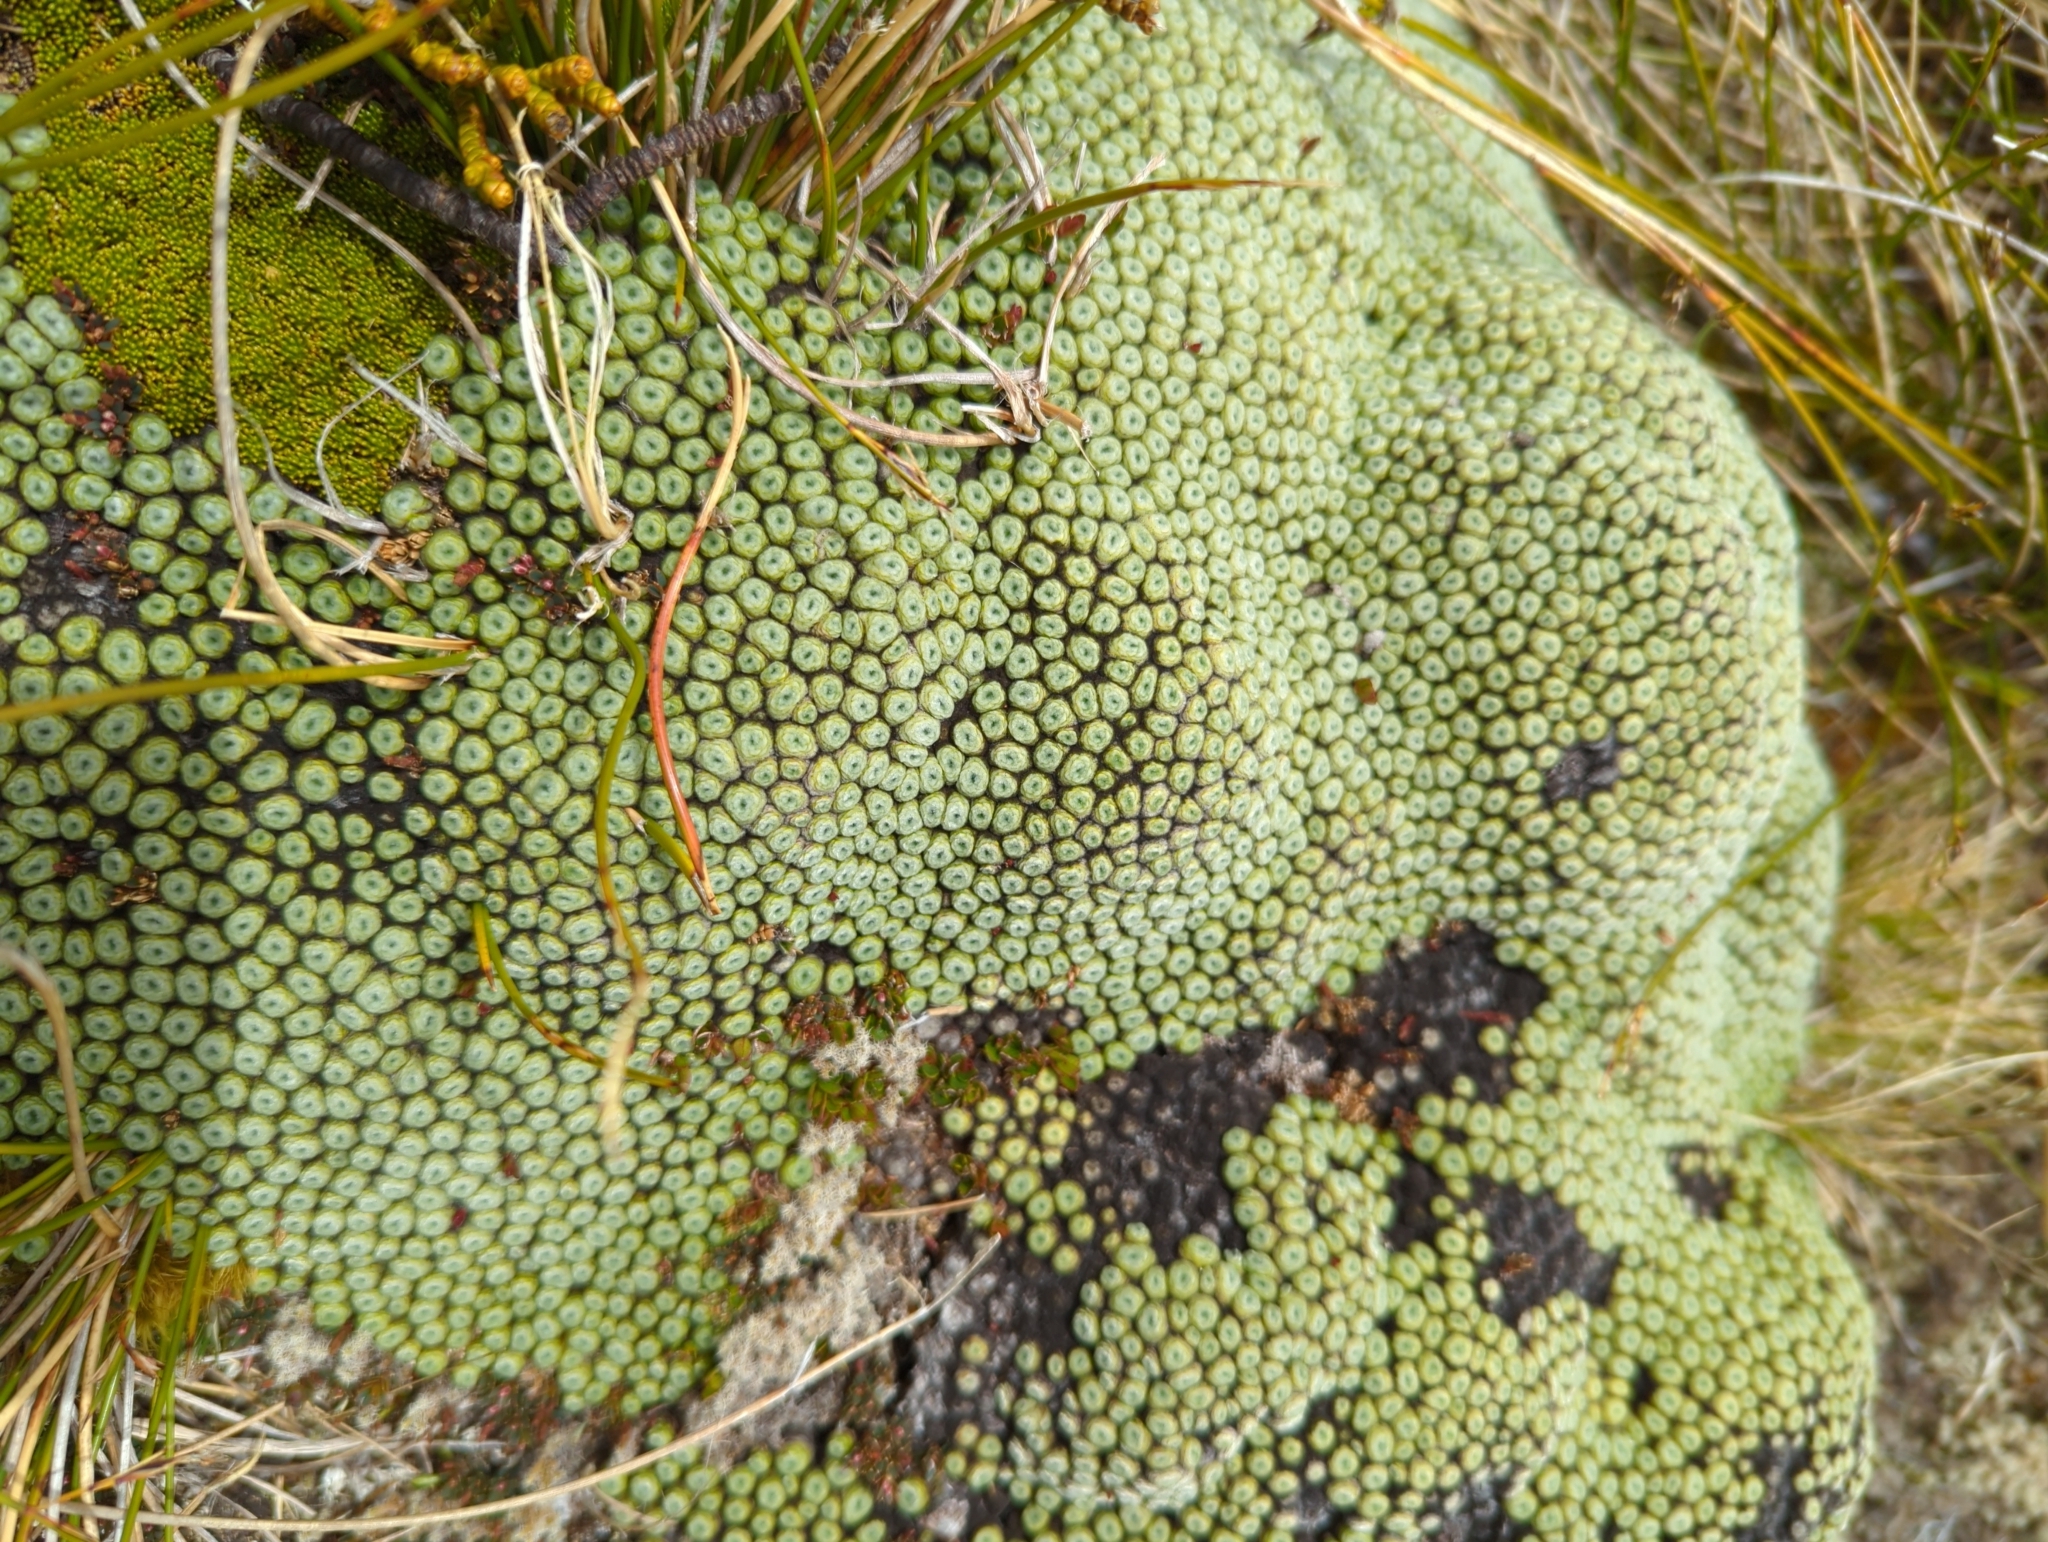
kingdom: Plantae
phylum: Tracheophyta
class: Magnoliopsida
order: Asterales
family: Asteraceae
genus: Raoulia
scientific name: Raoulia buchananii
